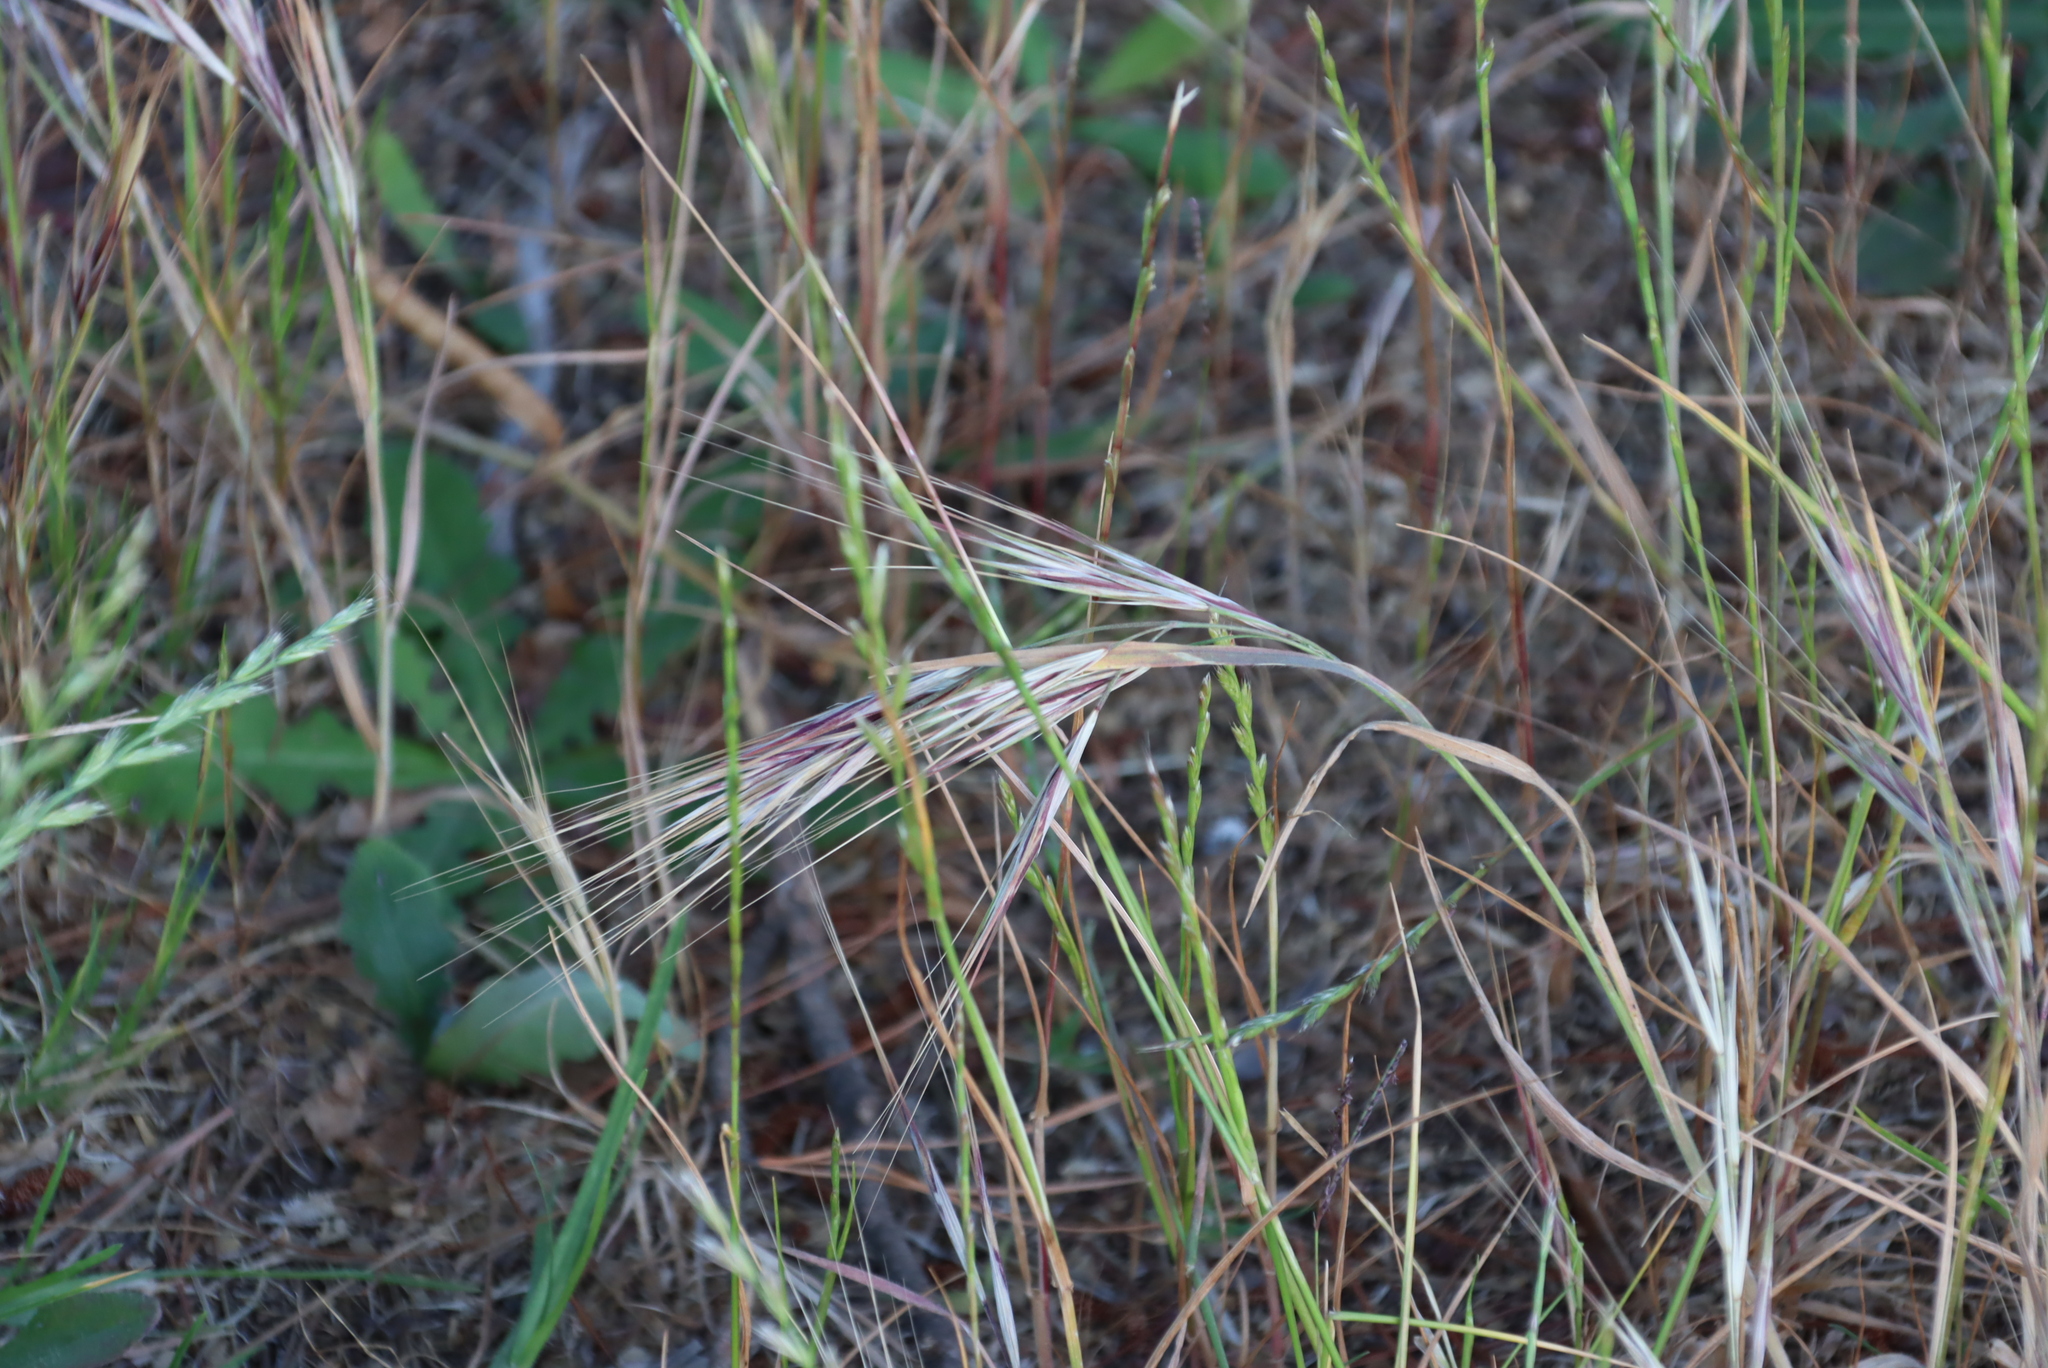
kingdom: Plantae
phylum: Tracheophyta
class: Liliopsida
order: Poales
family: Poaceae
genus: Bromus
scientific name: Bromus diandrus
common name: Ripgut brome
